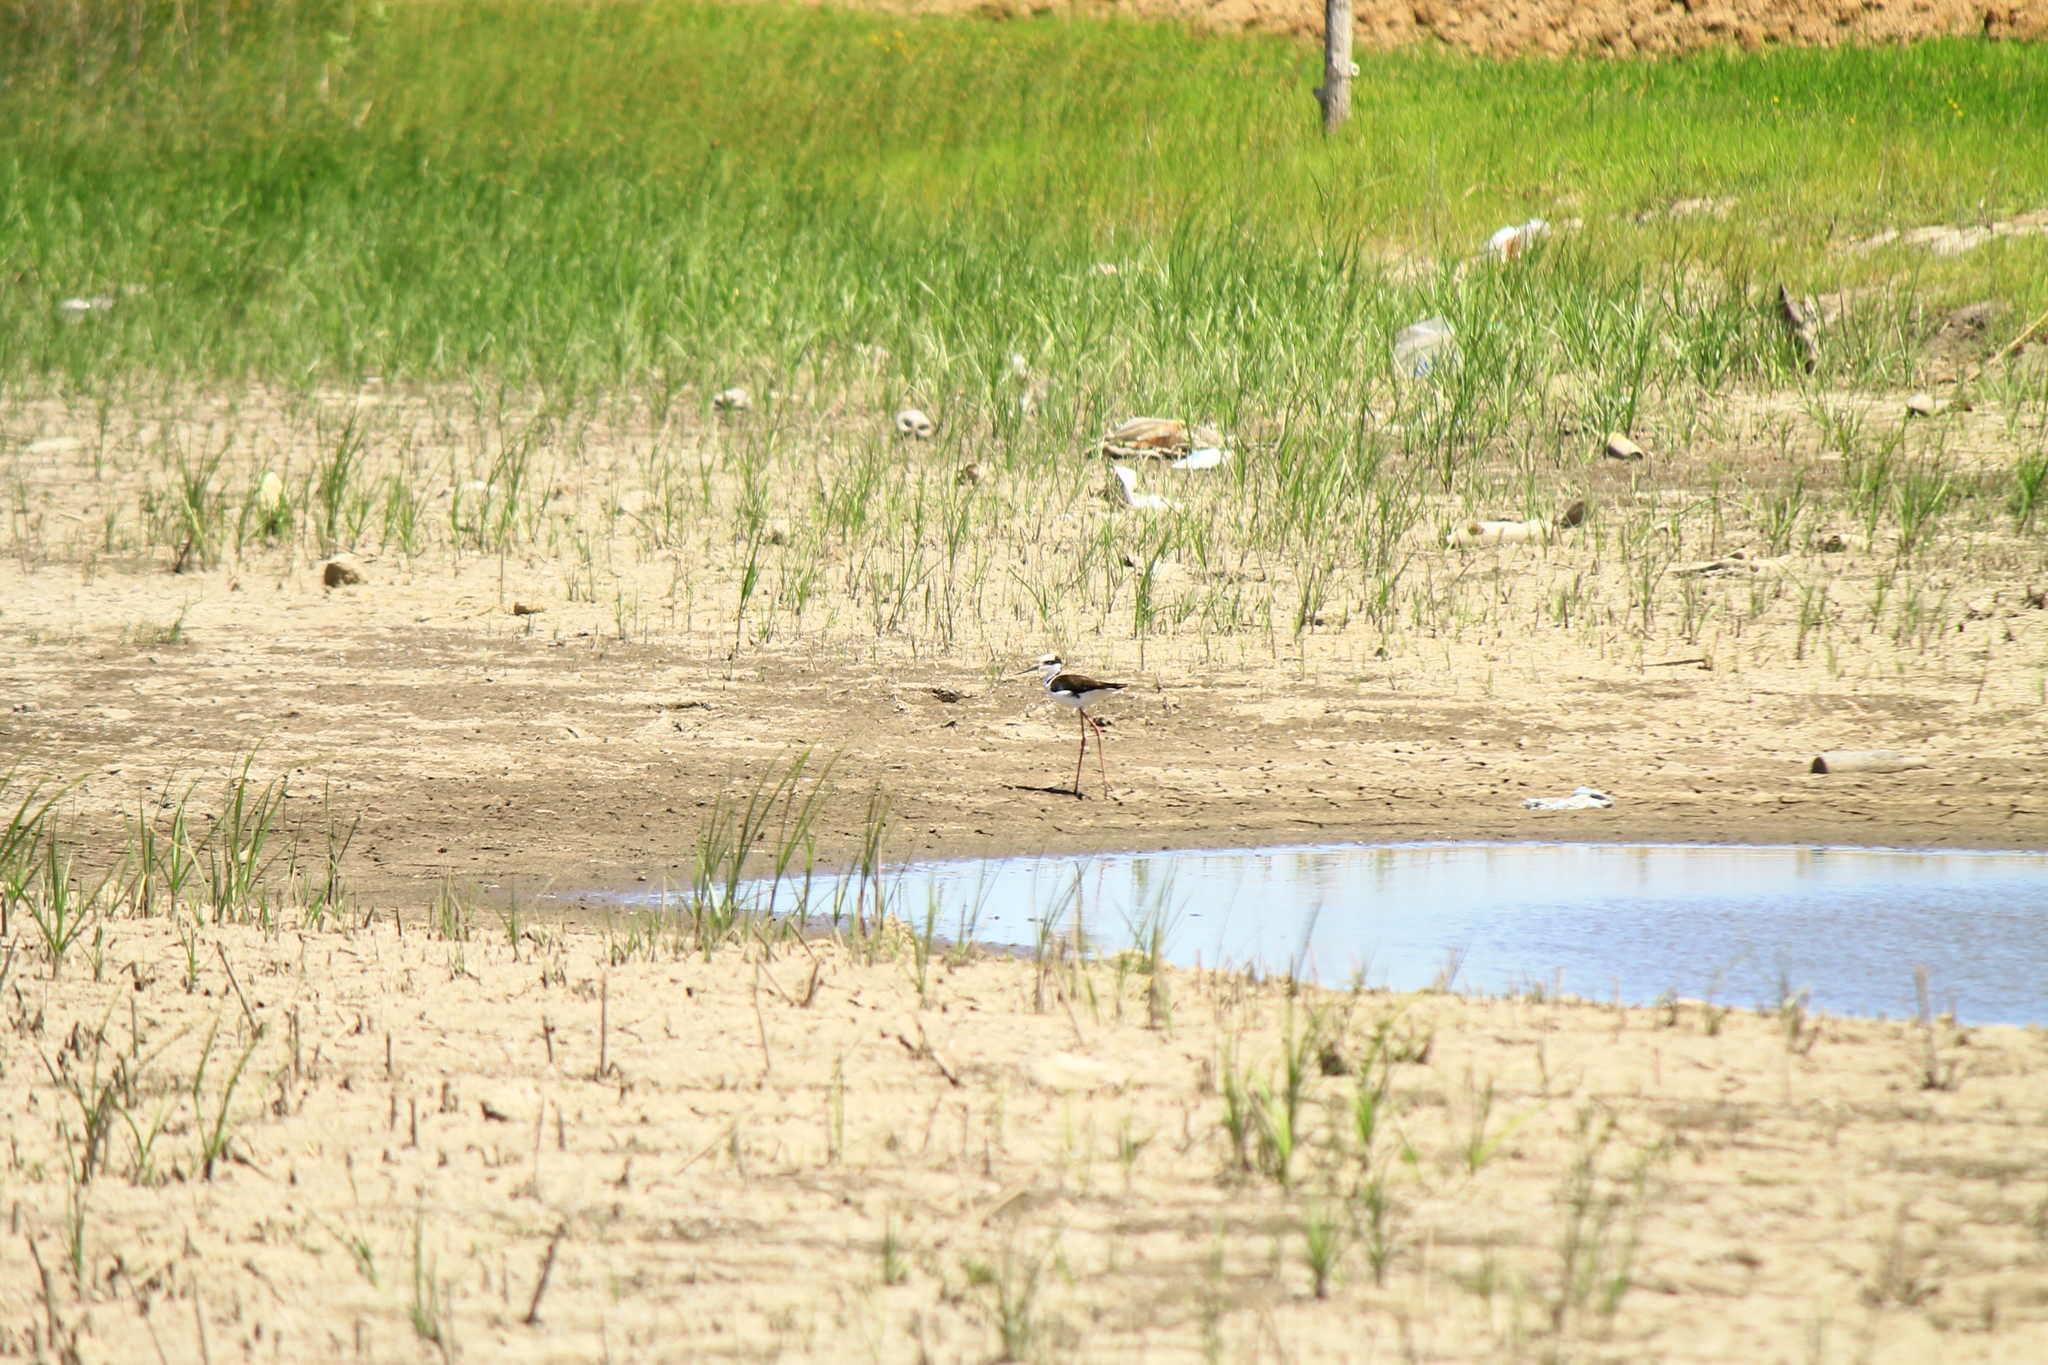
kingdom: Animalia
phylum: Chordata
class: Aves
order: Charadriiformes
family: Recurvirostridae
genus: Himantopus
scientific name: Himantopus mexicanus
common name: Black-necked stilt
